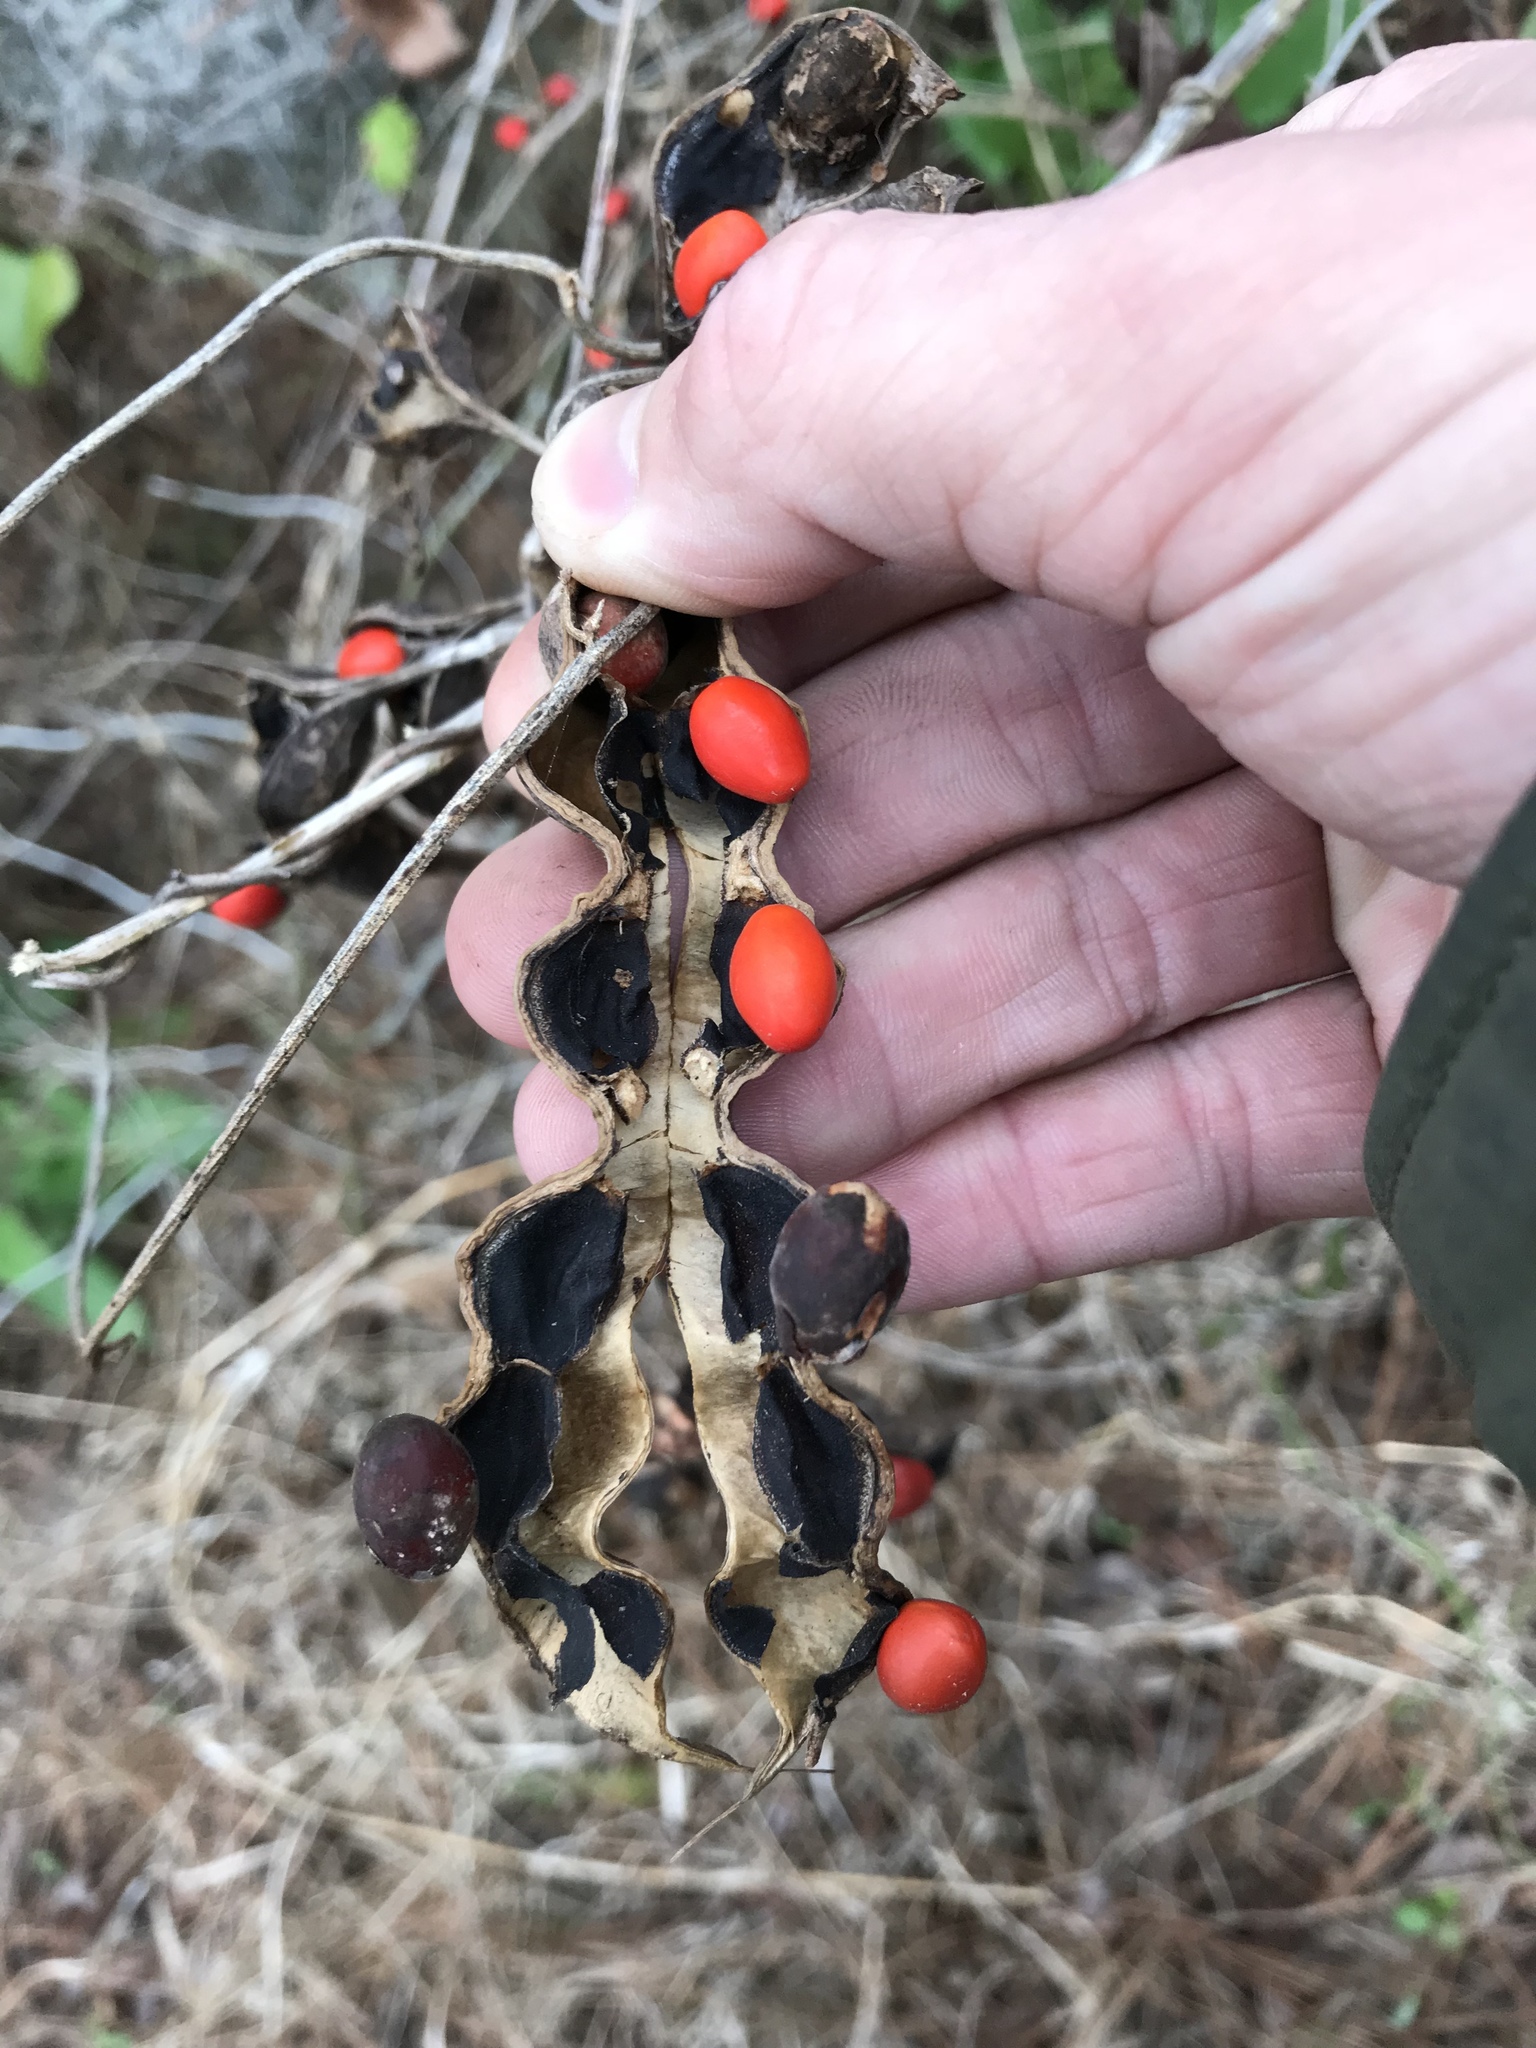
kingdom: Plantae
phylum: Tracheophyta
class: Magnoliopsida
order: Fabales
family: Fabaceae
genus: Erythrina
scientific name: Erythrina herbacea
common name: Coral-bean
